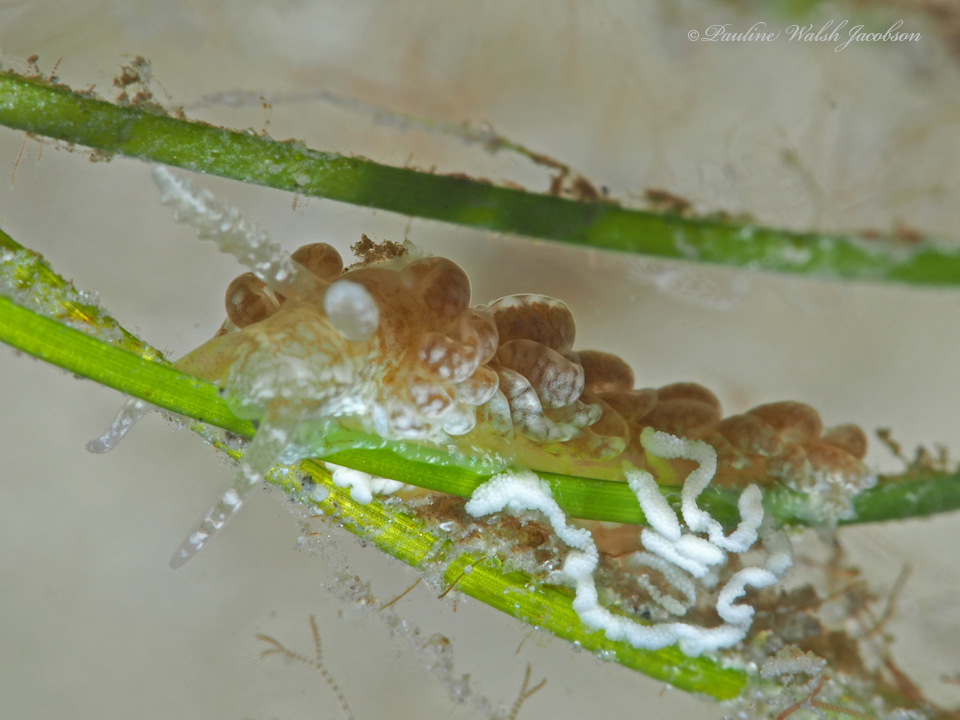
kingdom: Animalia
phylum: Mollusca
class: Gastropoda
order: Nudibranchia
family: Aeolidiidae
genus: Spurilla
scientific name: Spurilla sargassicola
